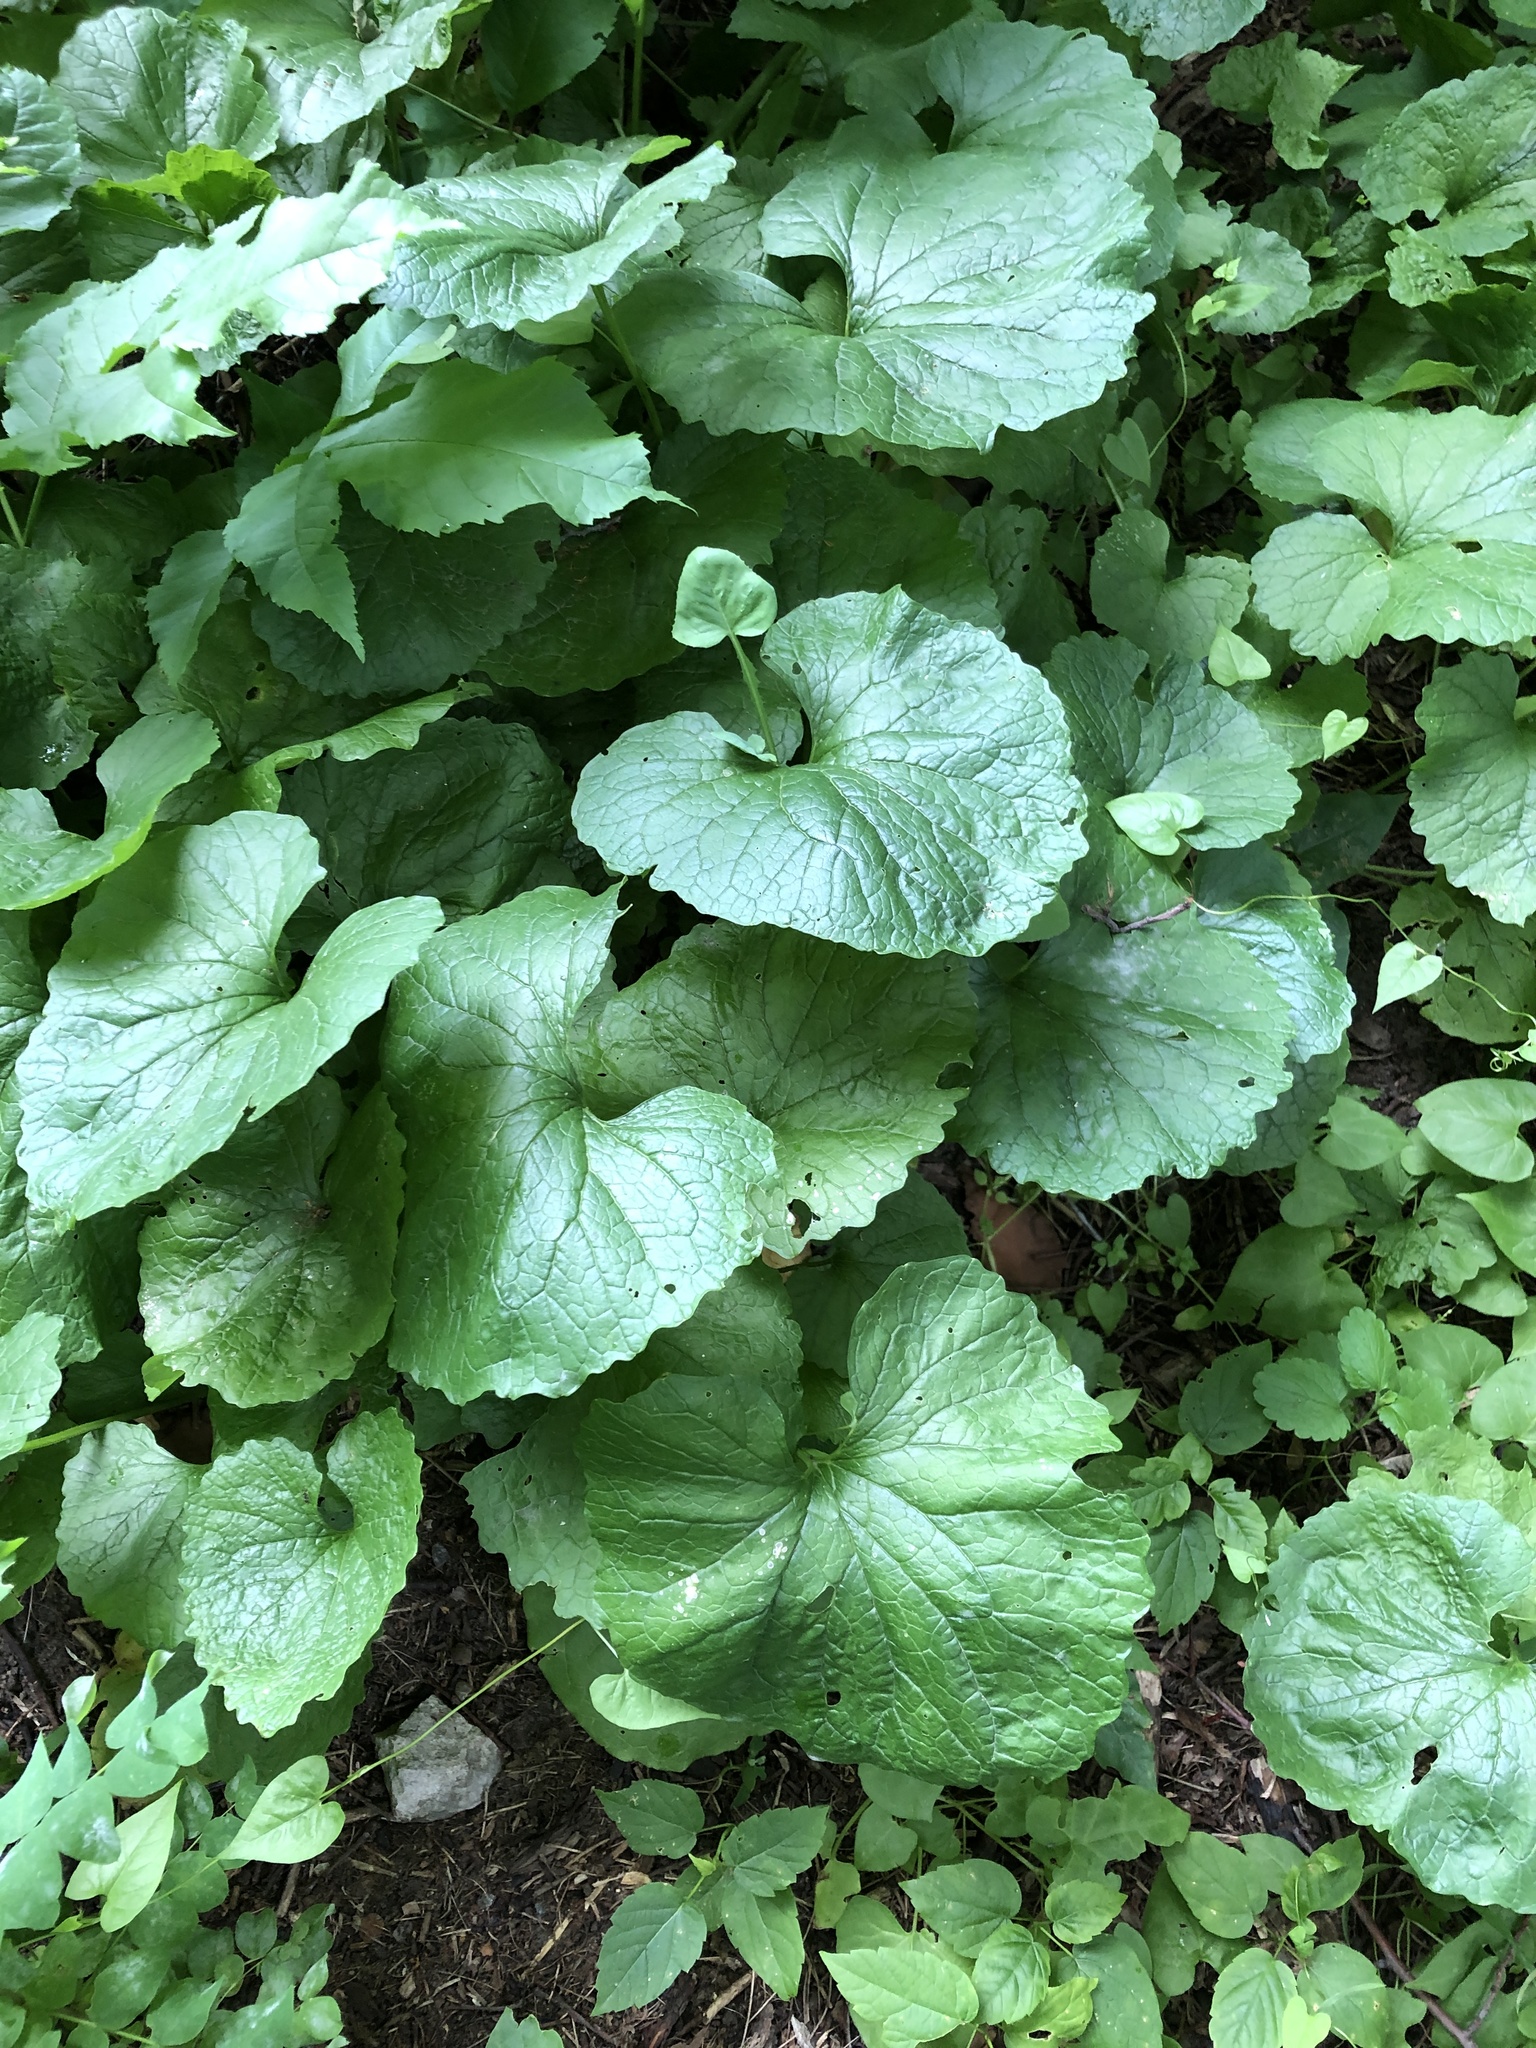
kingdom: Plantae
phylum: Tracheophyta
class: Magnoliopsida
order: Brassicales
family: Brassicaceae
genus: Alliaria
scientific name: Alliaria petiolata
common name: Garlic mustard
